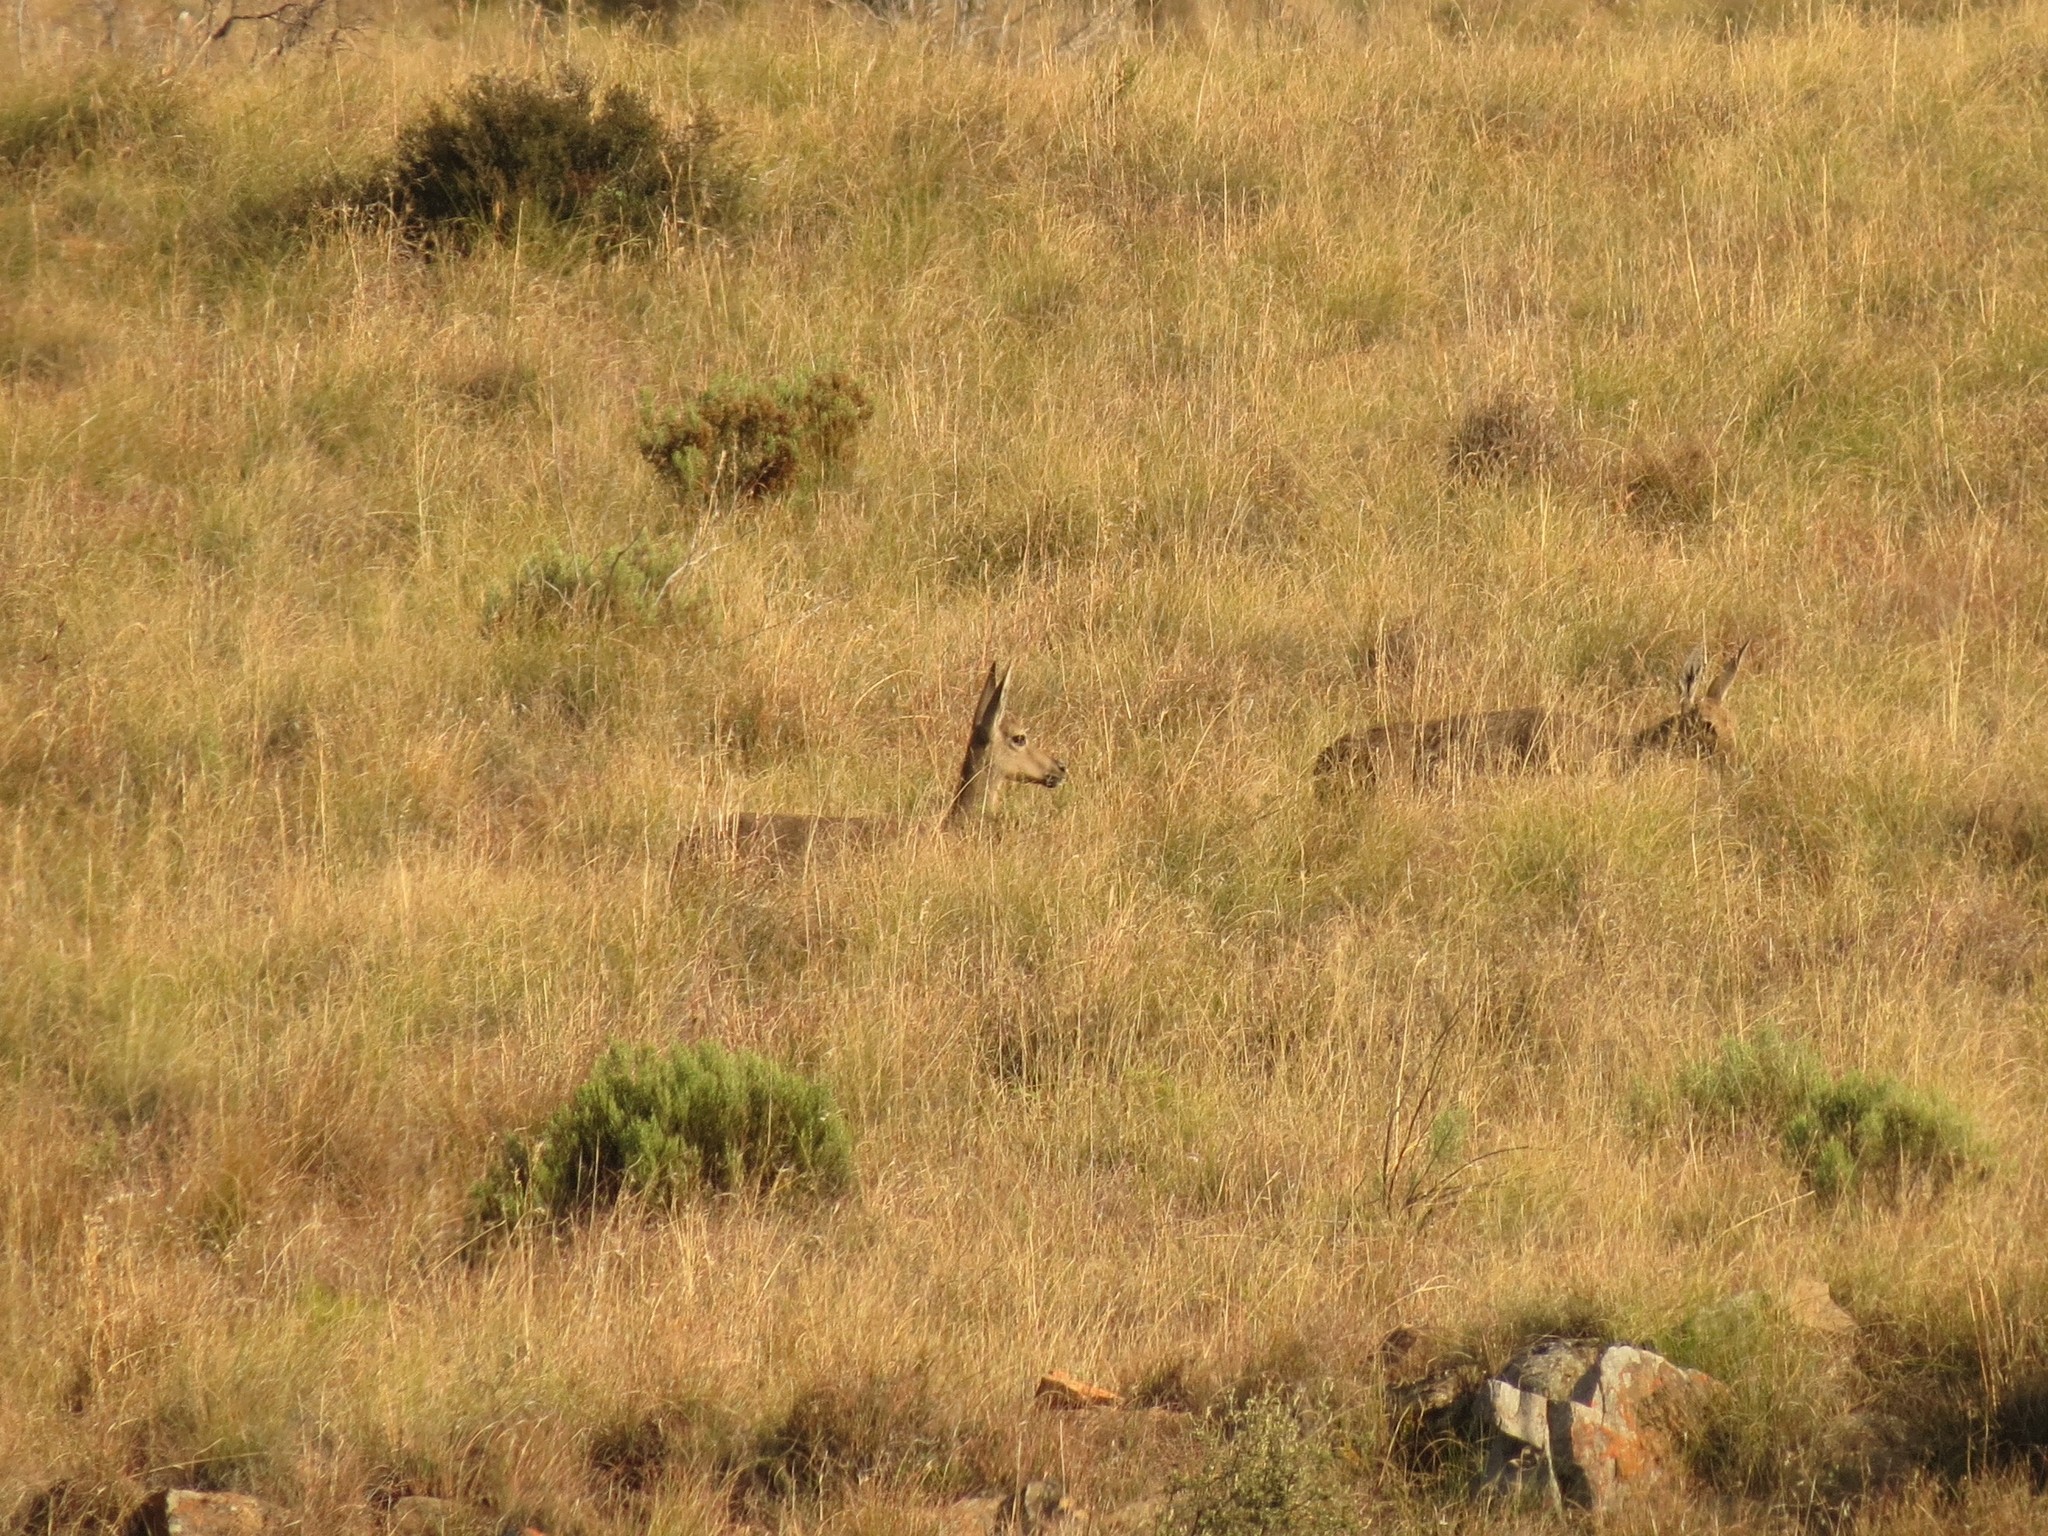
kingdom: Animalia
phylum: Chordata
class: Mammalia
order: Artiodactyla
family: Bovidae
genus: Pelea
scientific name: Pelea capreolus
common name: Common rhebok
